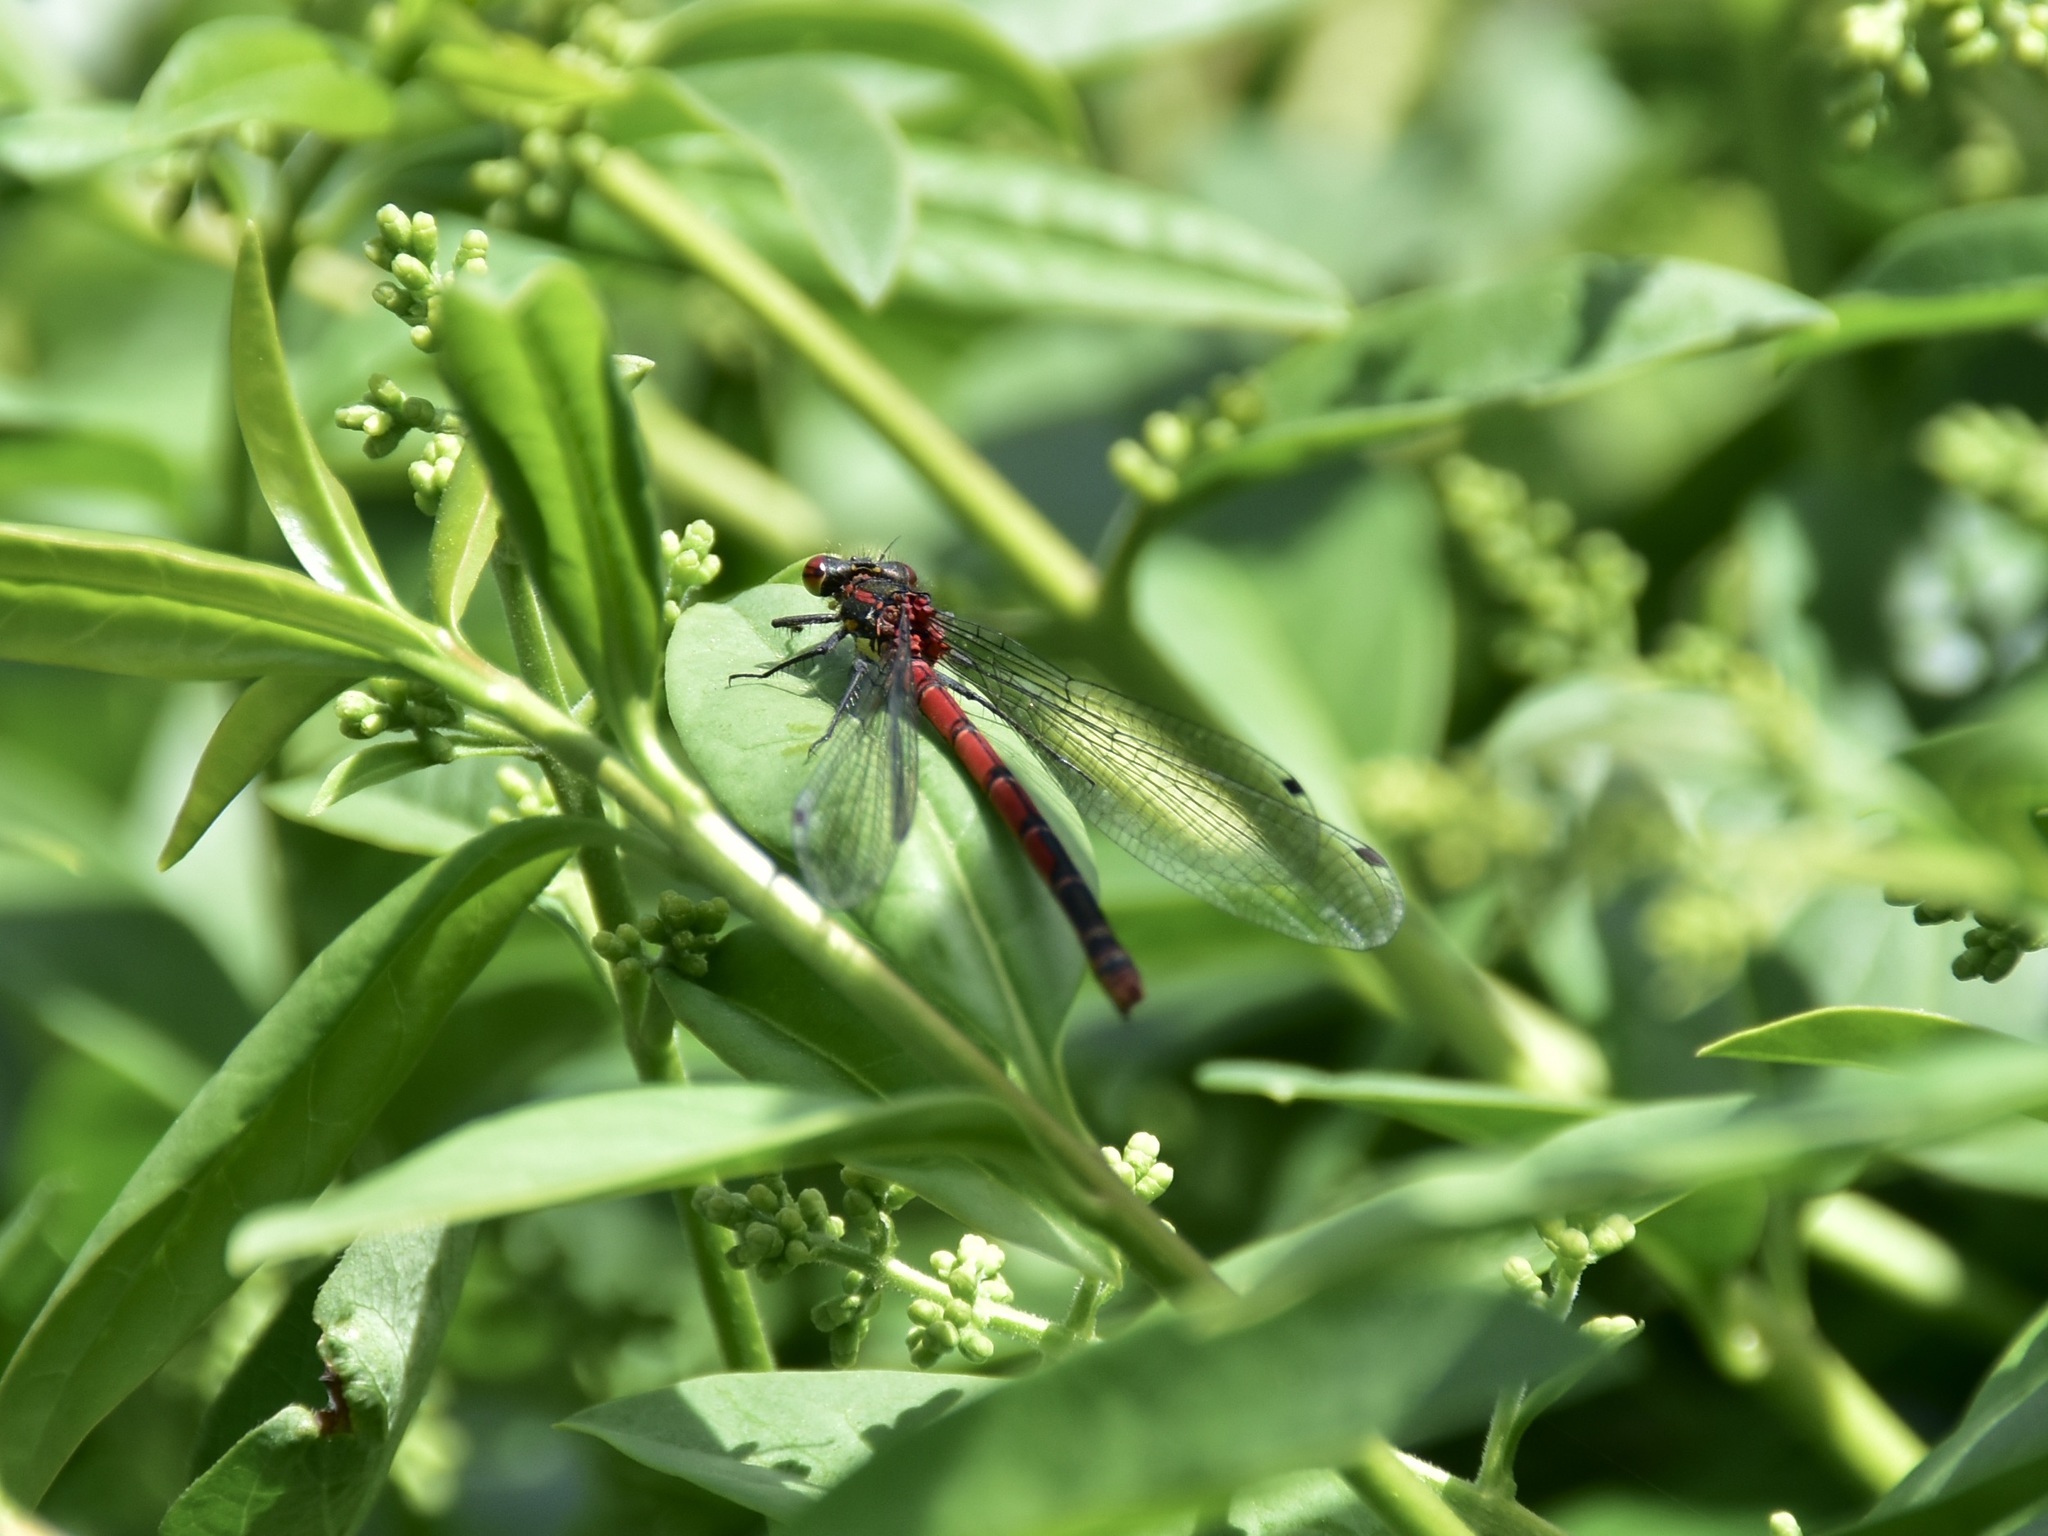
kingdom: Animalia
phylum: Arthropoda
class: Insecta
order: Odonata
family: Coenagrionidae
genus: Pyrrhosoma
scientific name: Pyrrhosoma nymphula
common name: Large red damsel
